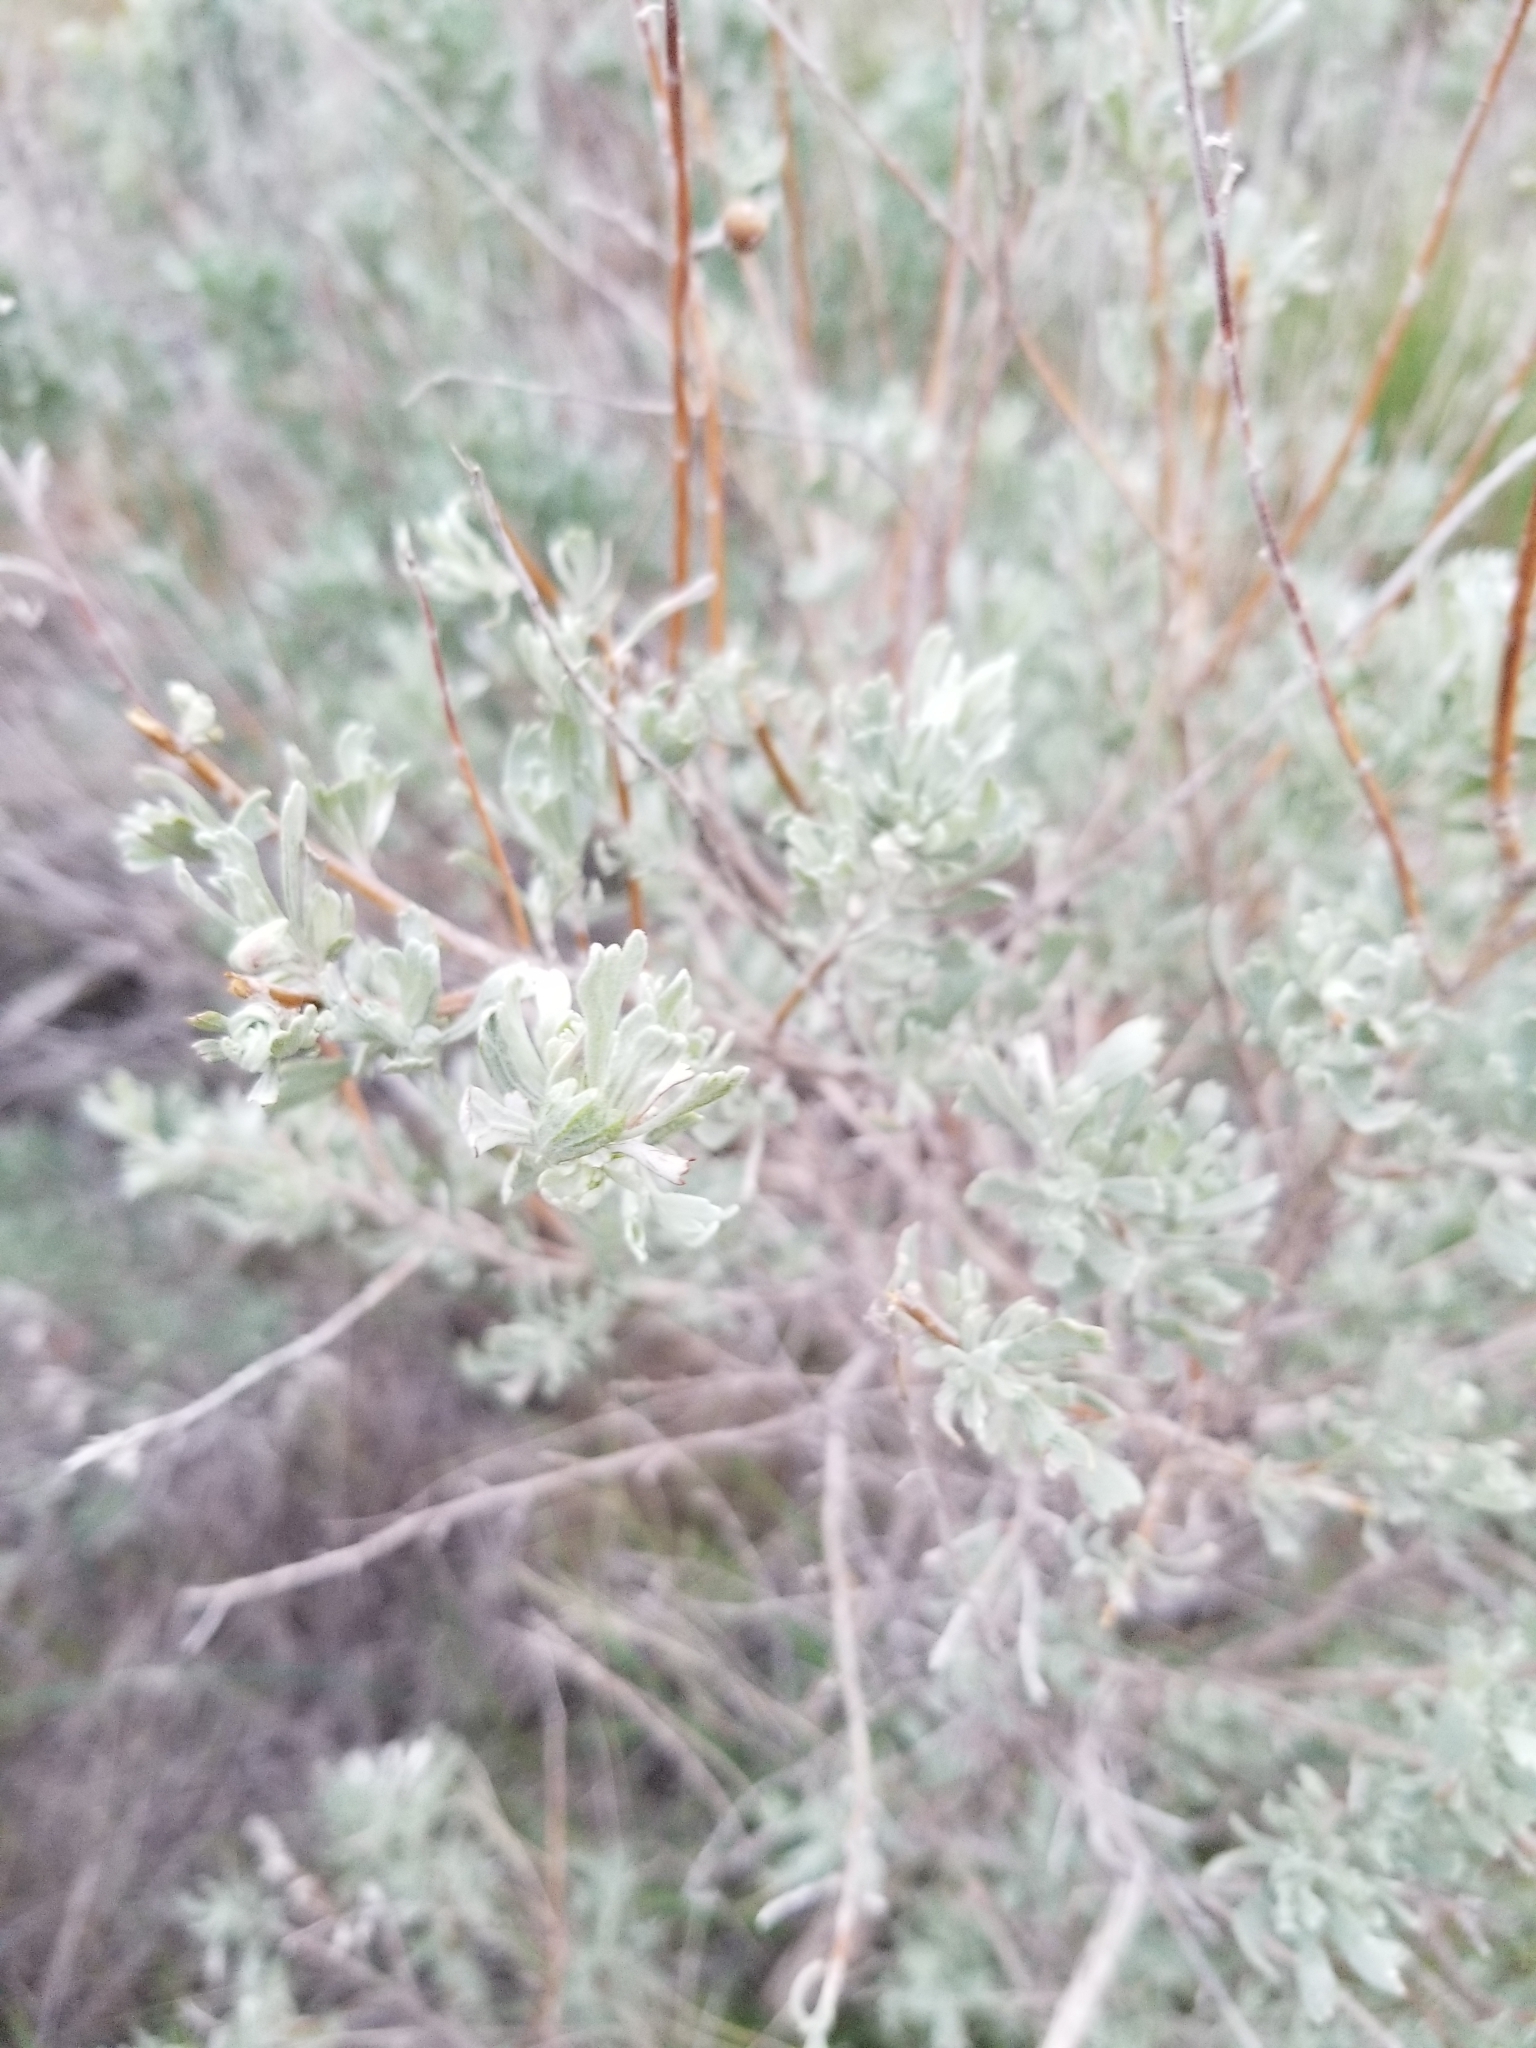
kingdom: Plantae
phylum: Tracheophyta
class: Magnoliopsida
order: Asterales
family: Asteraceae
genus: Artemisia
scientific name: Artemisia tridentata
